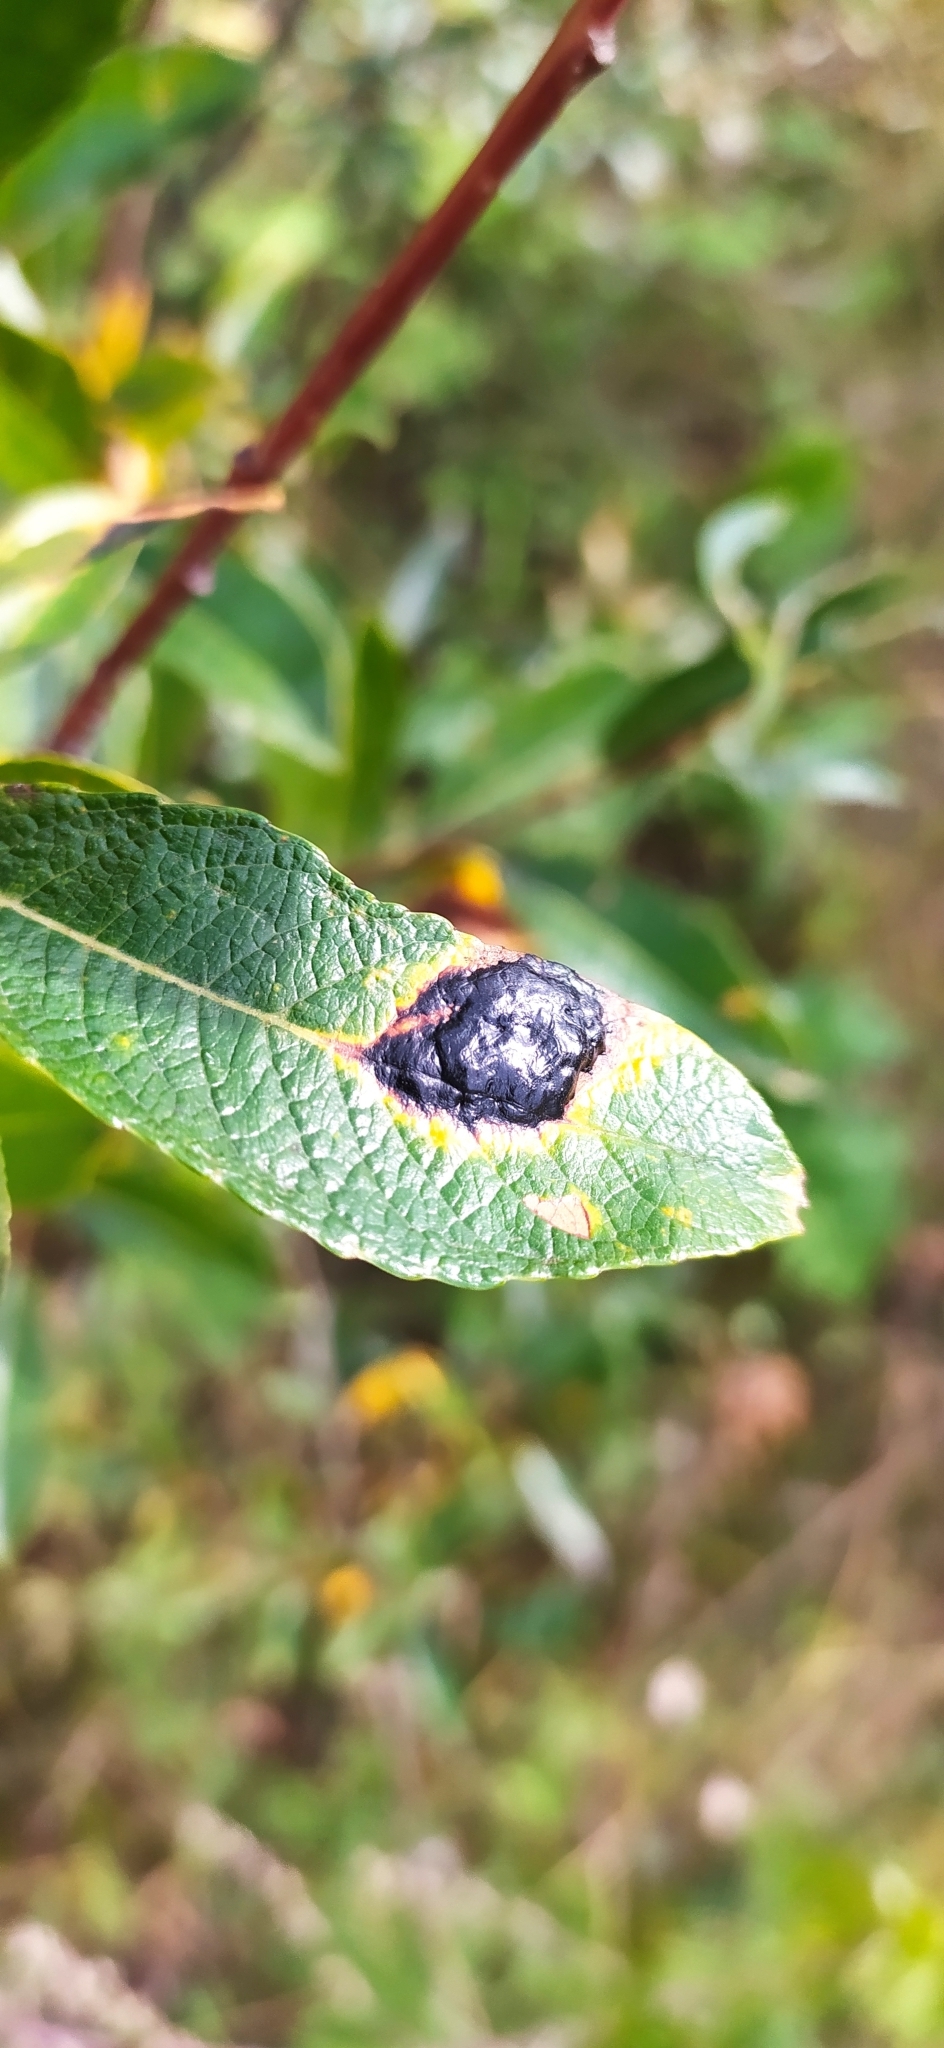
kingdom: Fungi
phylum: Ascomycota
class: Leotiomycetes
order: Rhytismatales
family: Rhytismataceae
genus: Rhytisma
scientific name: Rhytisma salicinum
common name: Willow tarspot
